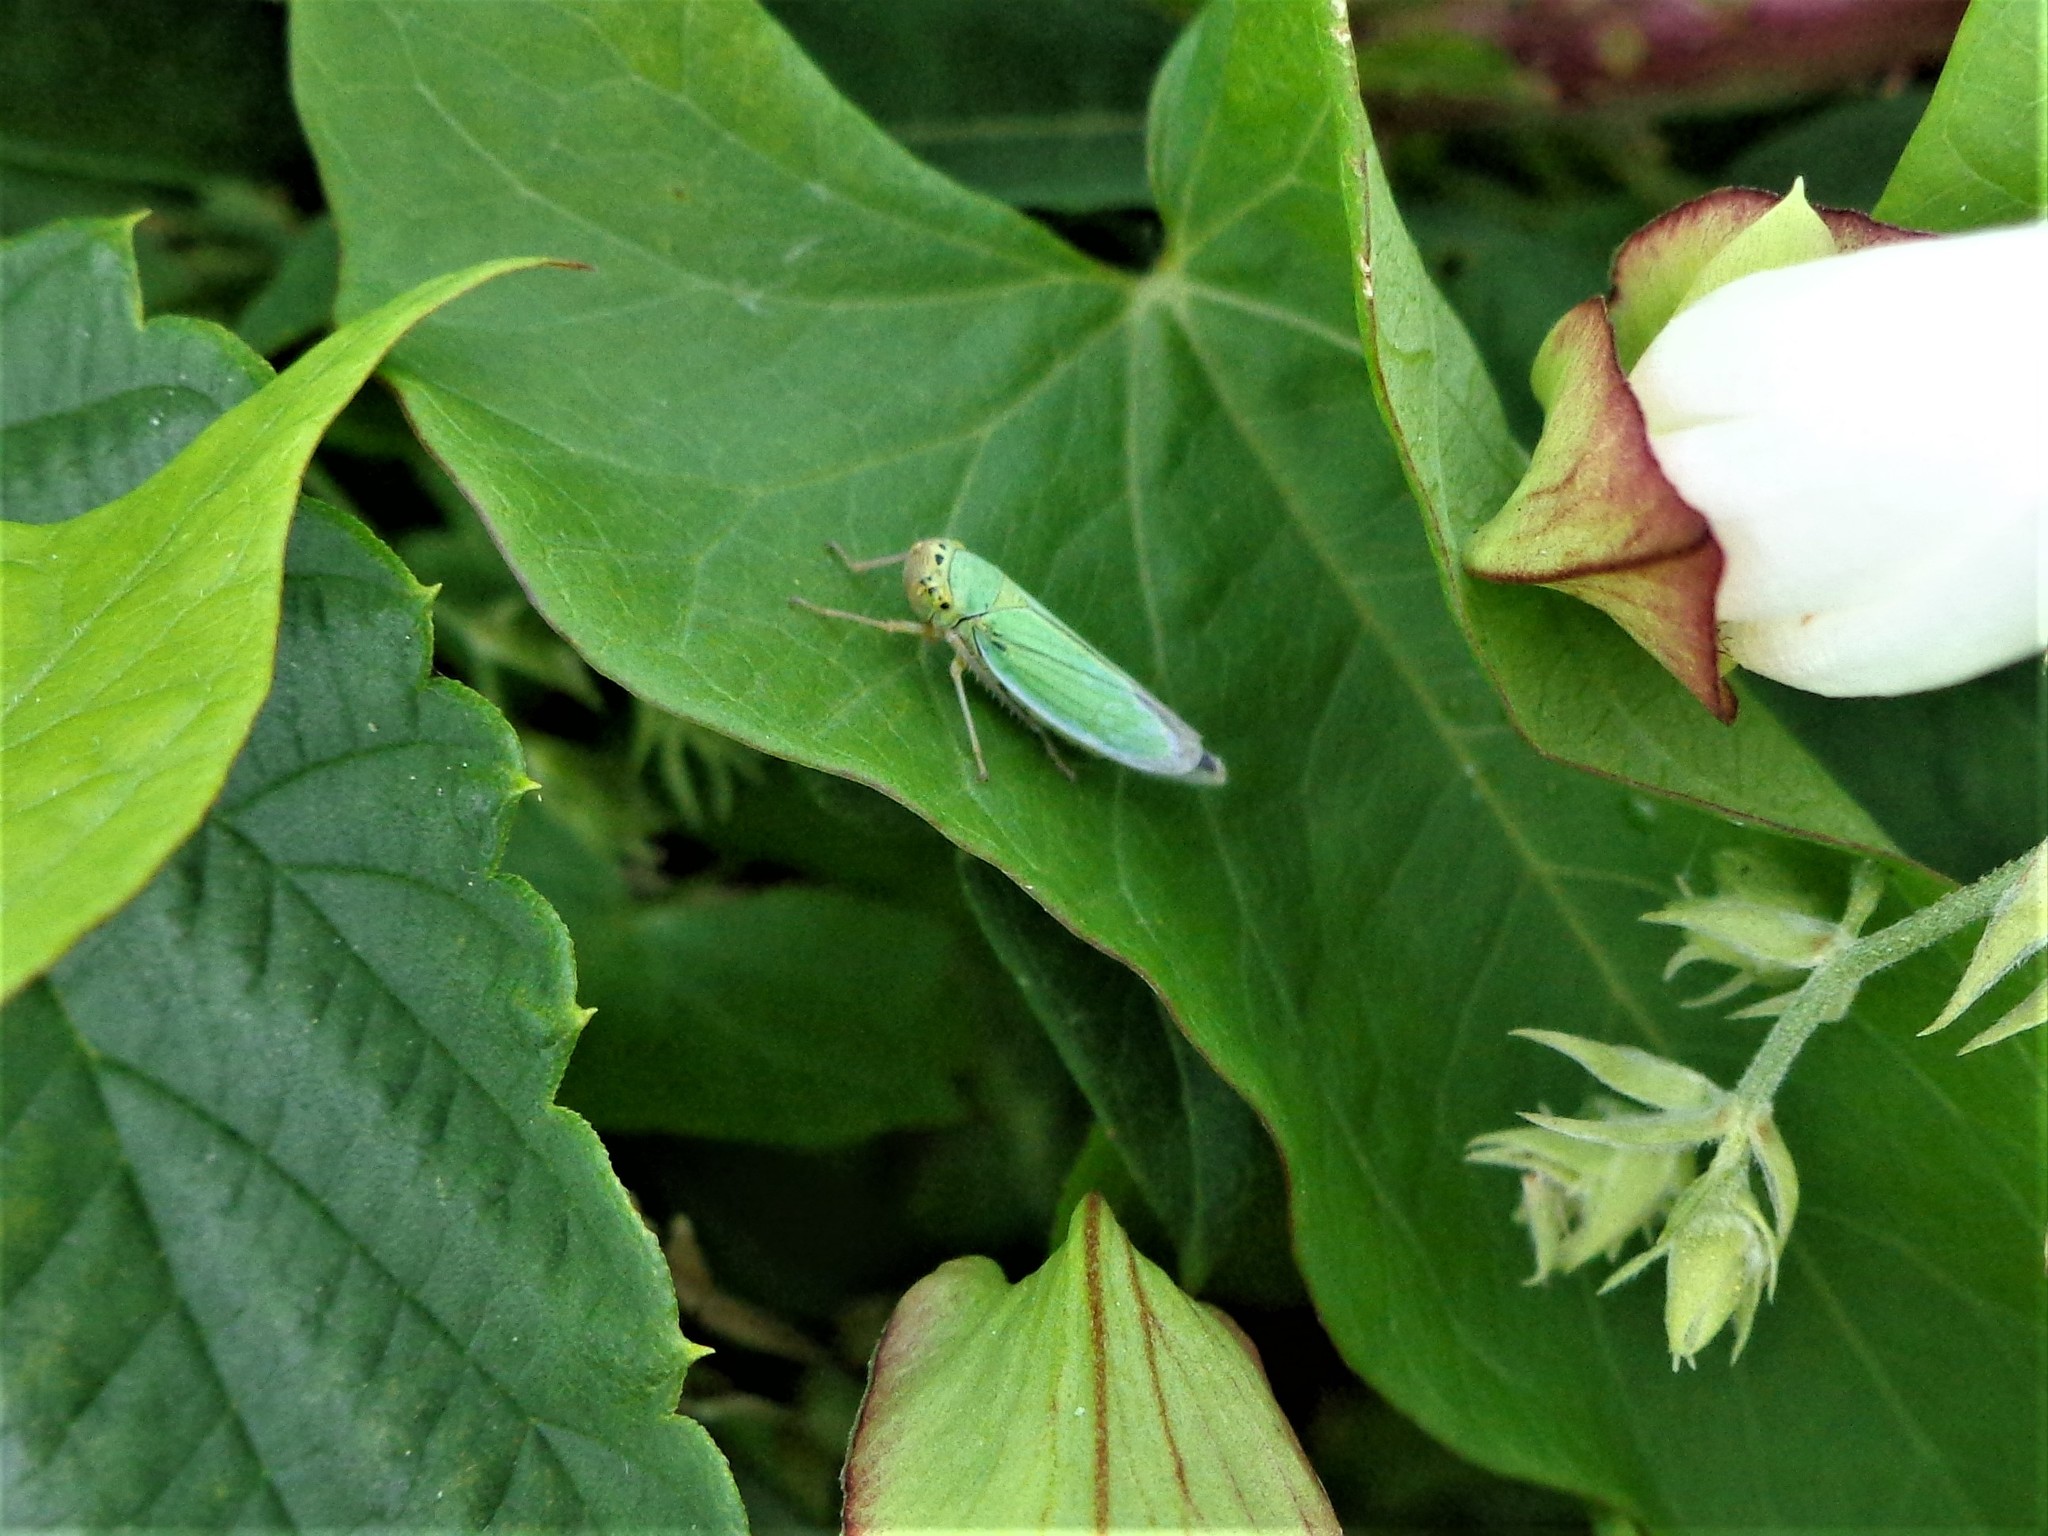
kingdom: Animalia
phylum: Arthropoda
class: Insecta
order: Hemiptera
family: Cicadellidae
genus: Cicadella
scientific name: Cicadella viridis
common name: Leafhopper
